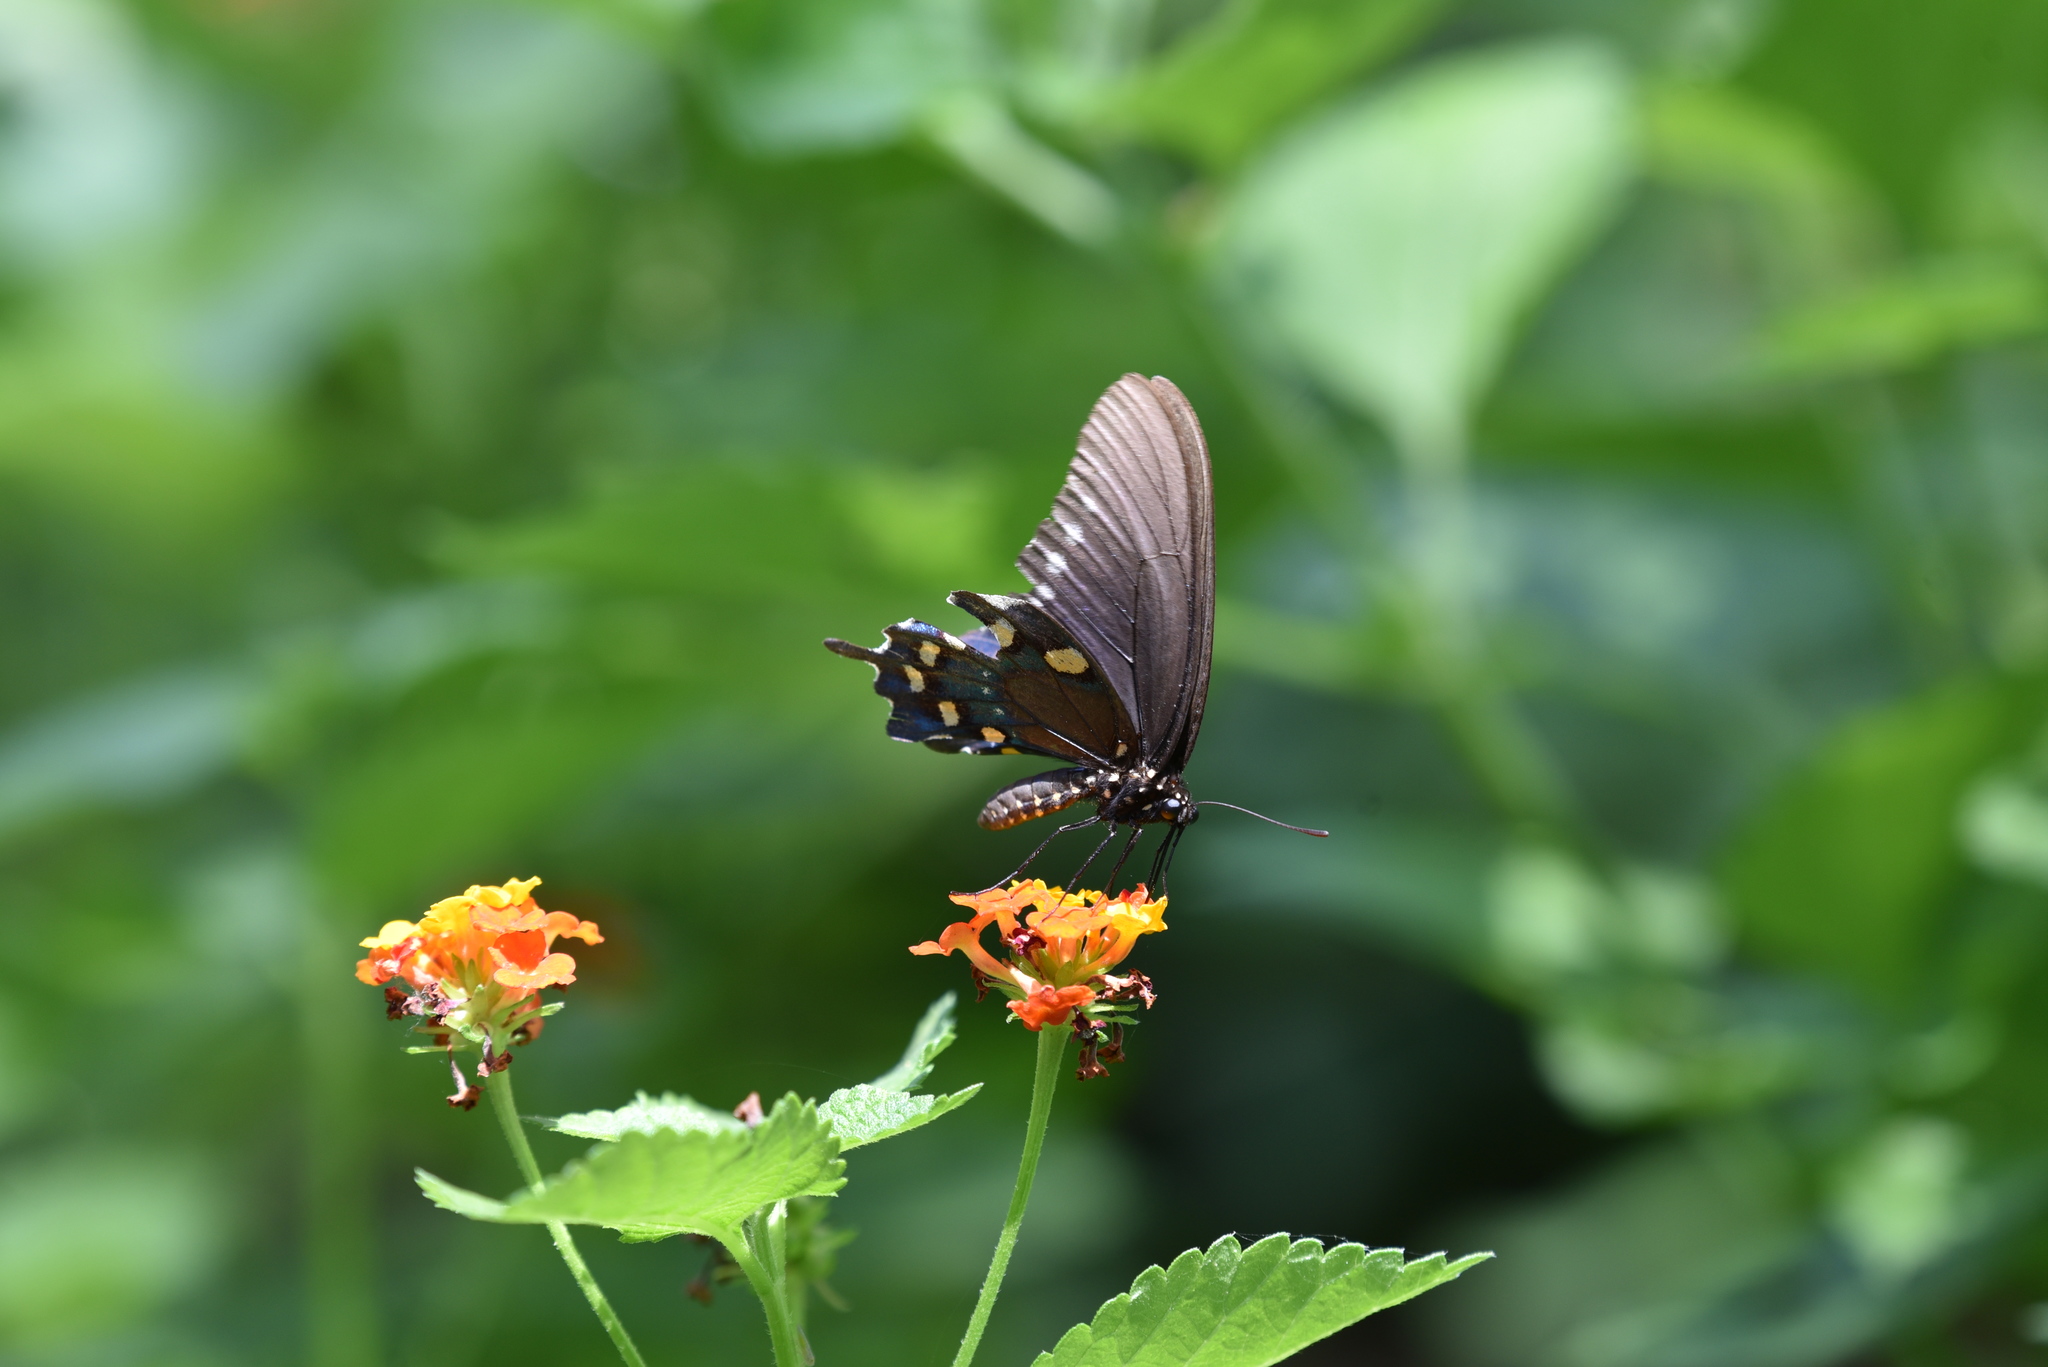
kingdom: Animalia
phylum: Arthropoda
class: Insecta
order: Lepidoptera
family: Papilionidae
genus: Battus
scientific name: Battus philenor
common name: Pipevine swallowtail
